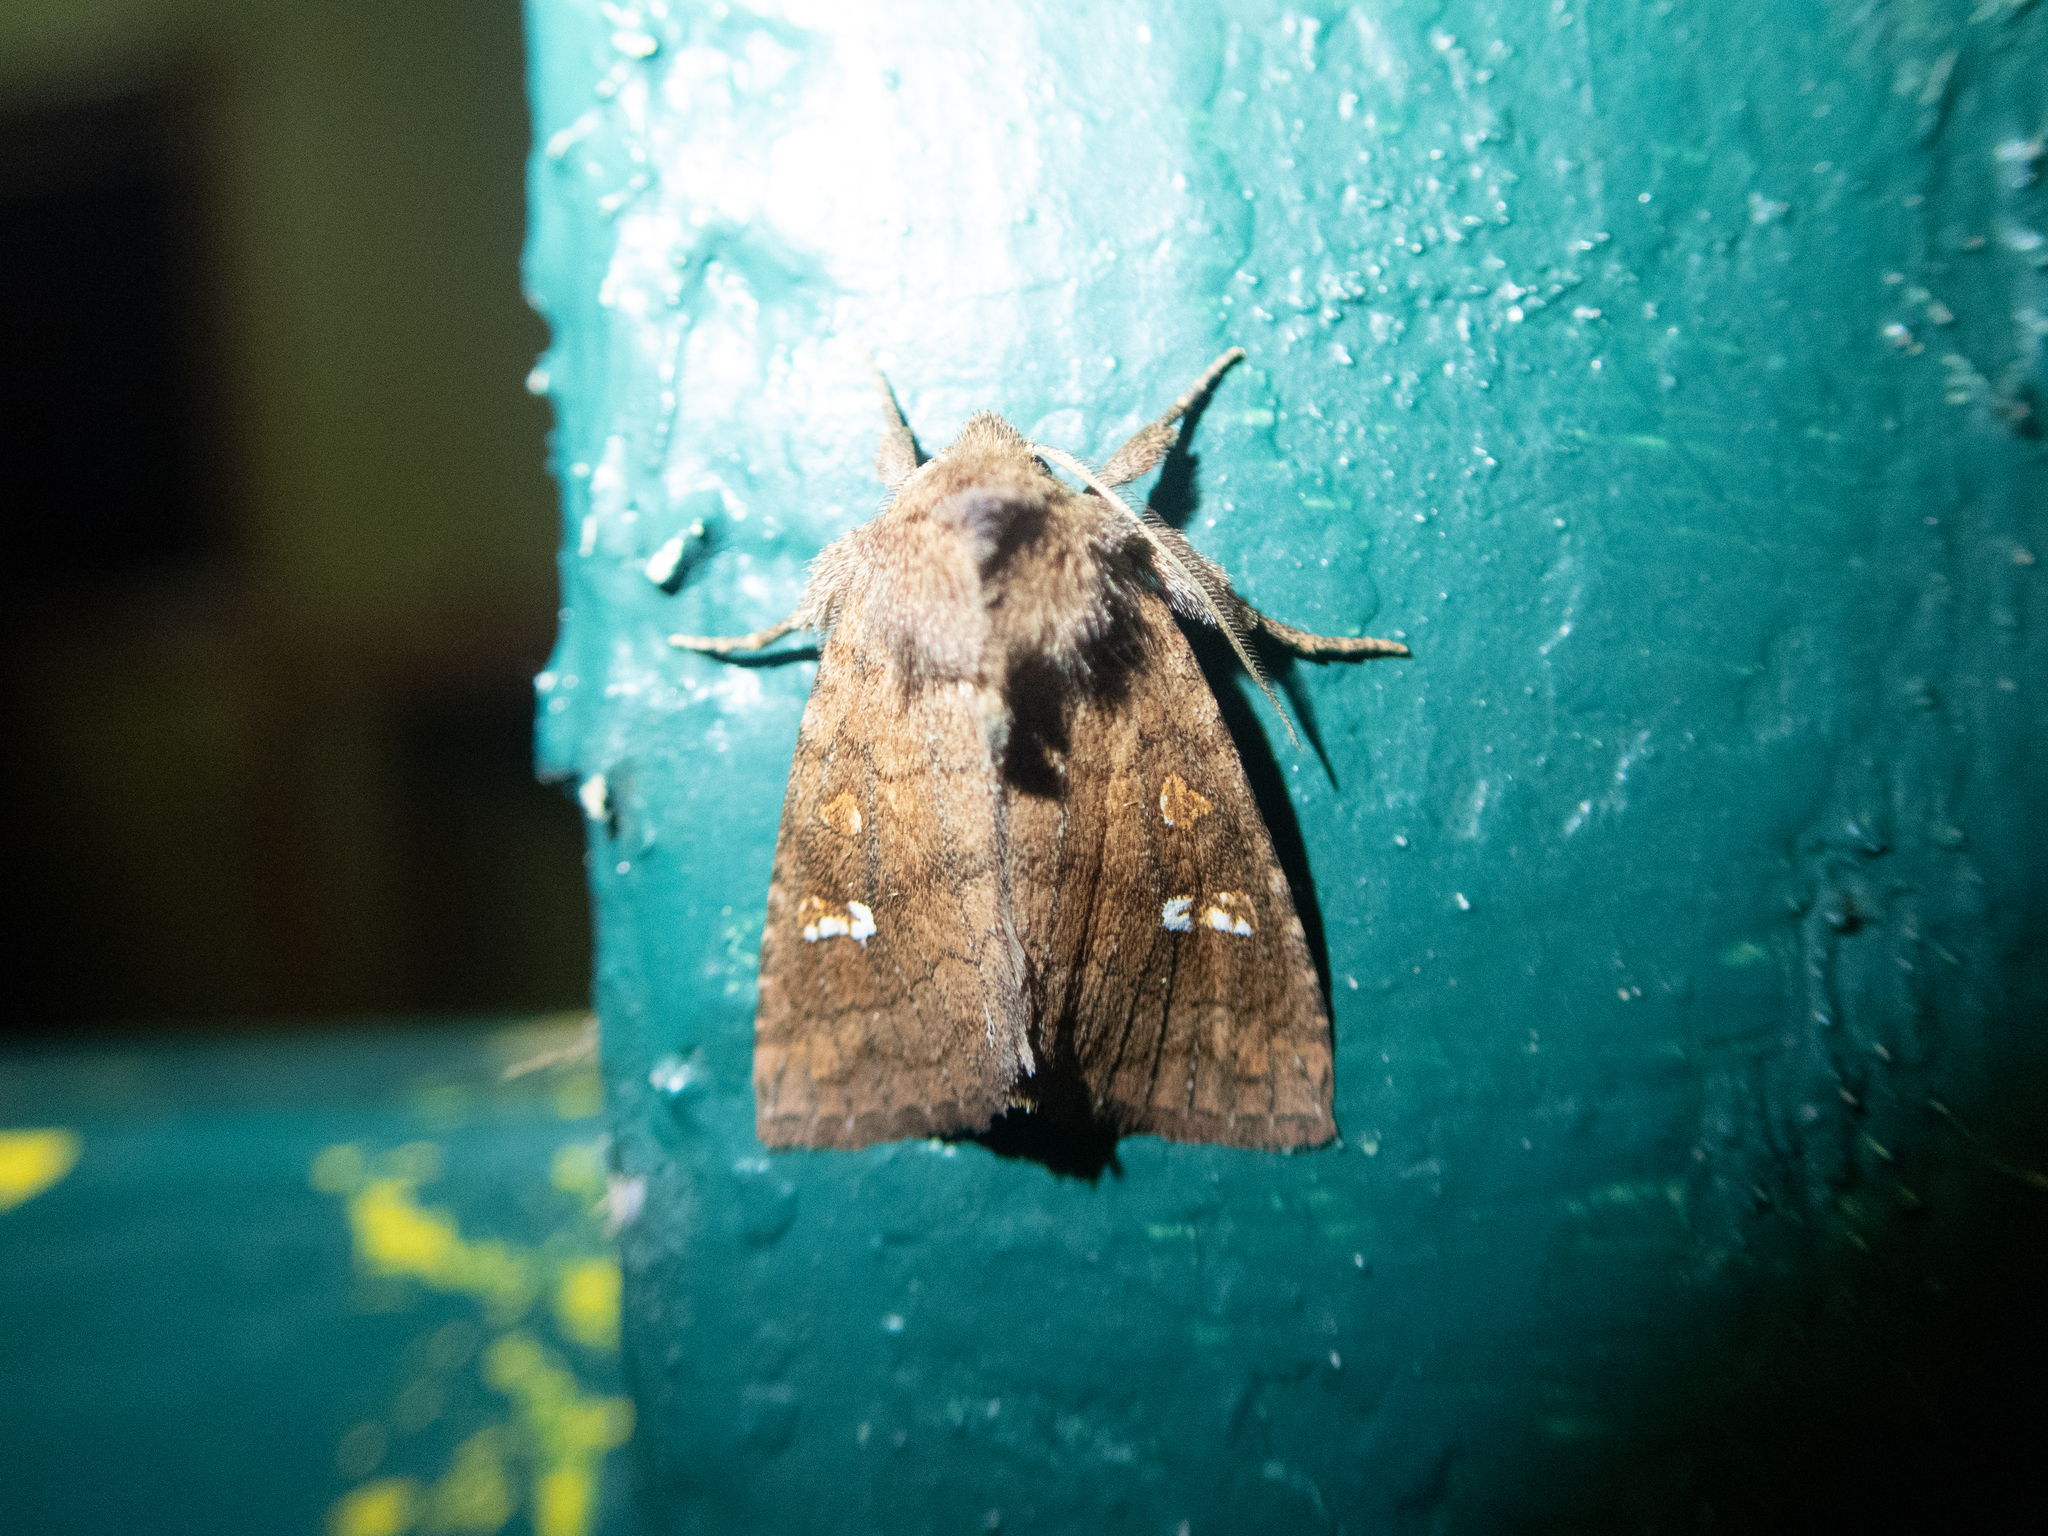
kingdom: Animalia
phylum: Arthropoda
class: Insecta
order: Lepidoptera
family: Noctuidae
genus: Tricholita
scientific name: Tricholita signata
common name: Signate quaker
